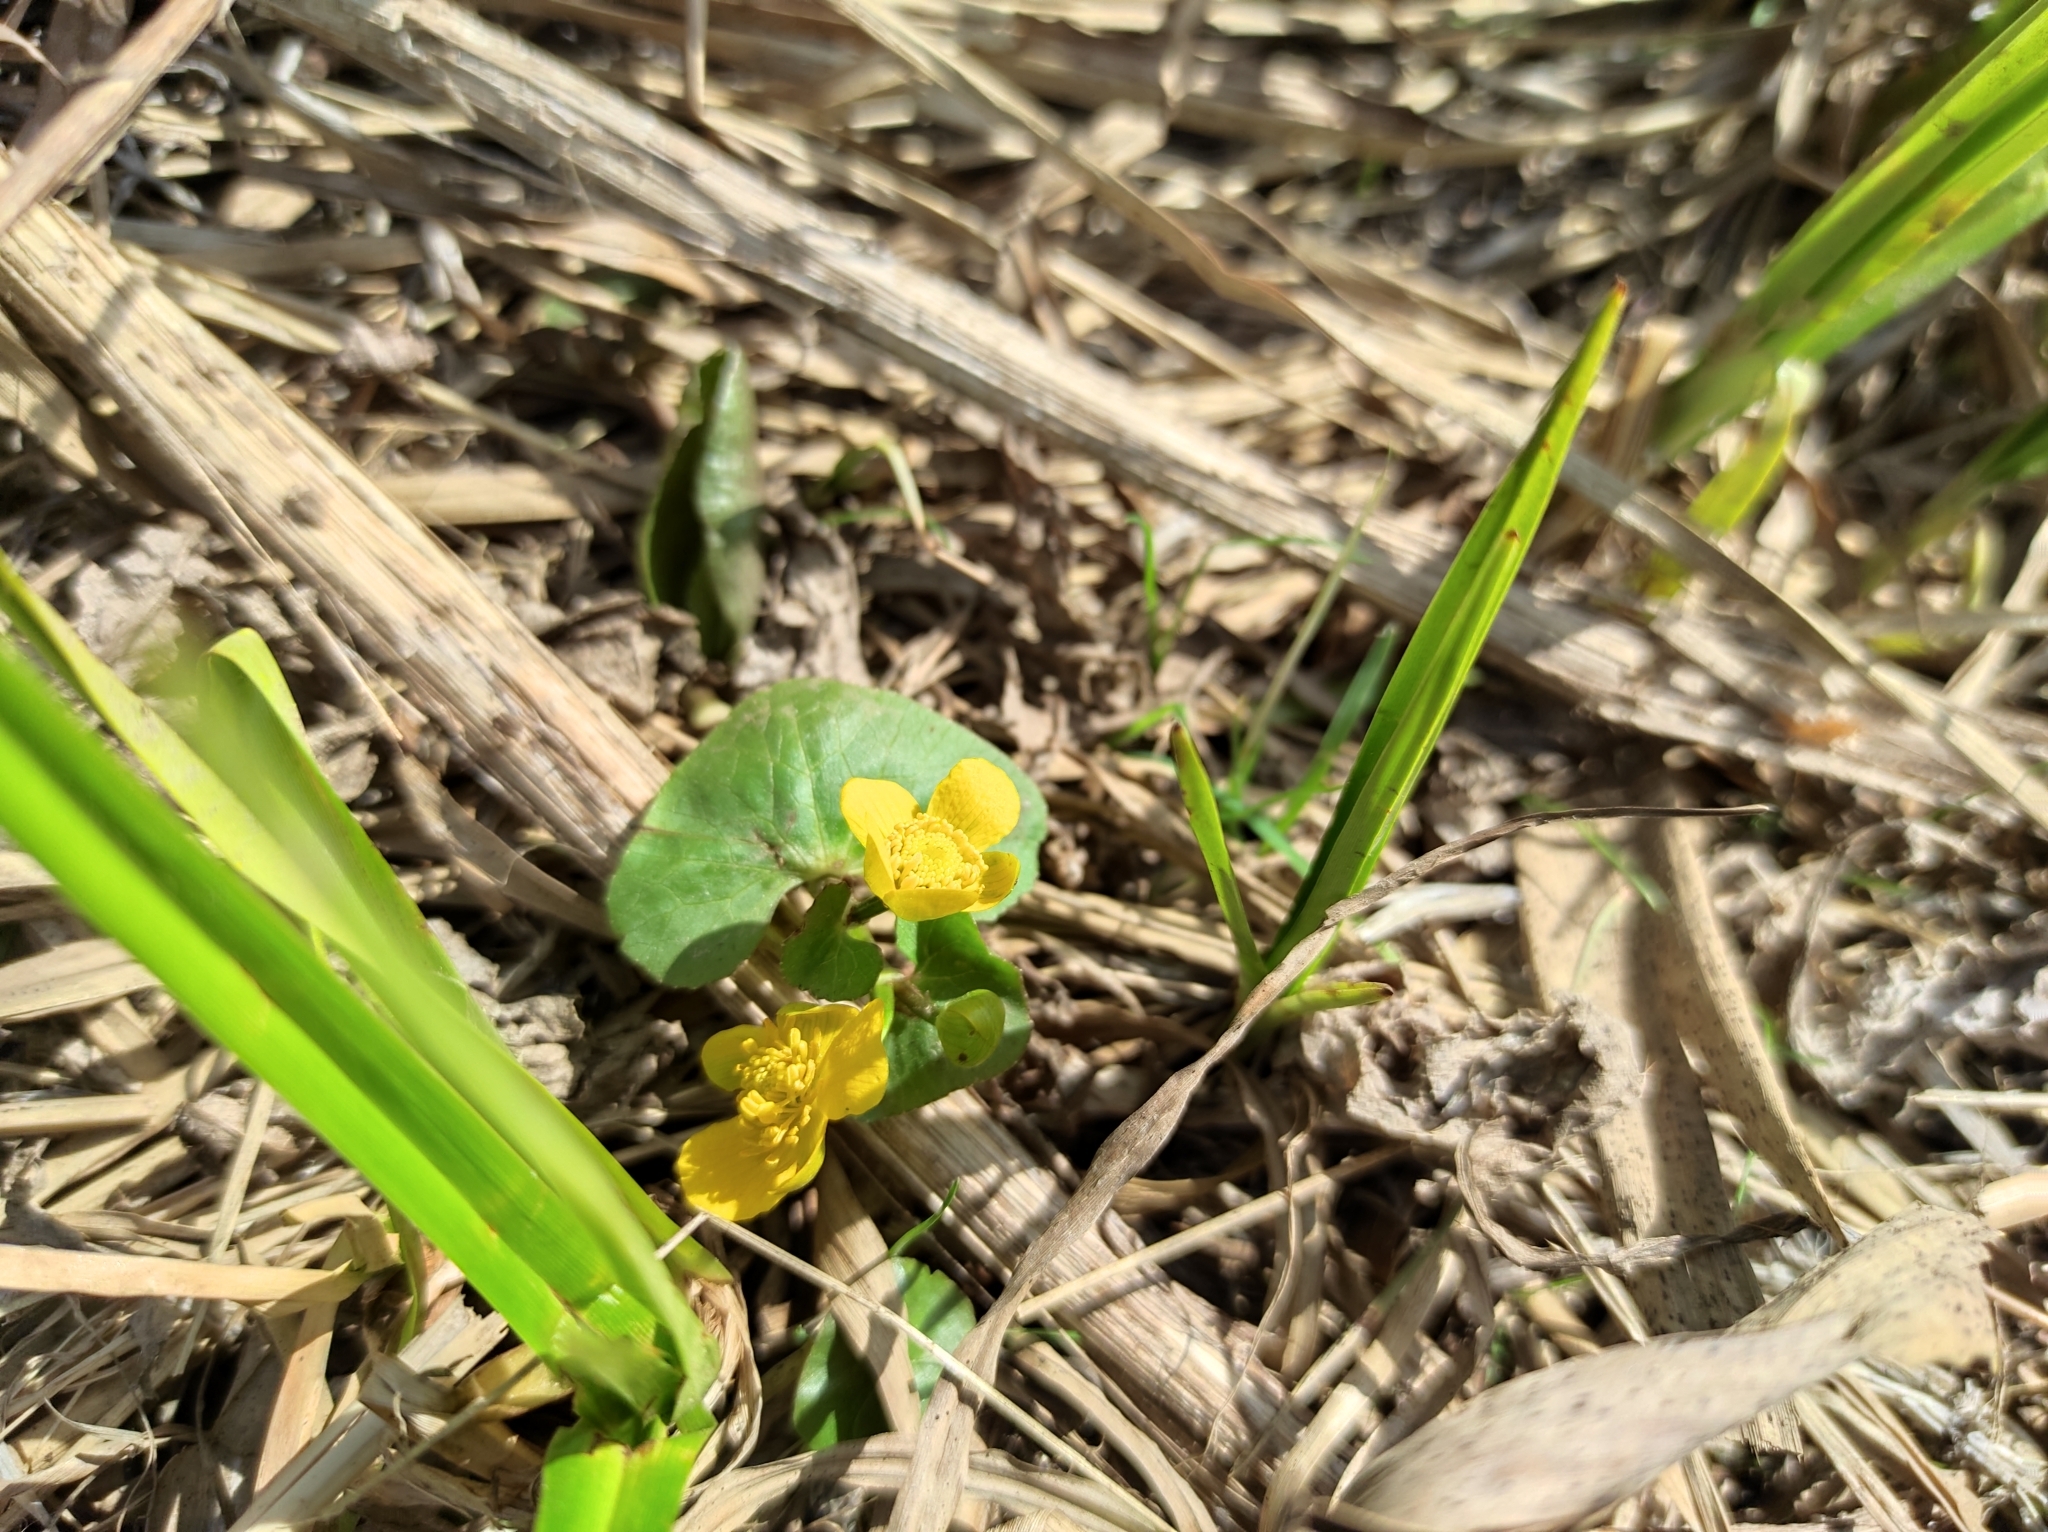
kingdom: Plantae
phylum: Tracheophyta
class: Magnoliopsida
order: Ranunculales
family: Ranunculaceae
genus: Caltha
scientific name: Caltha palustris
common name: Marsh marigold
